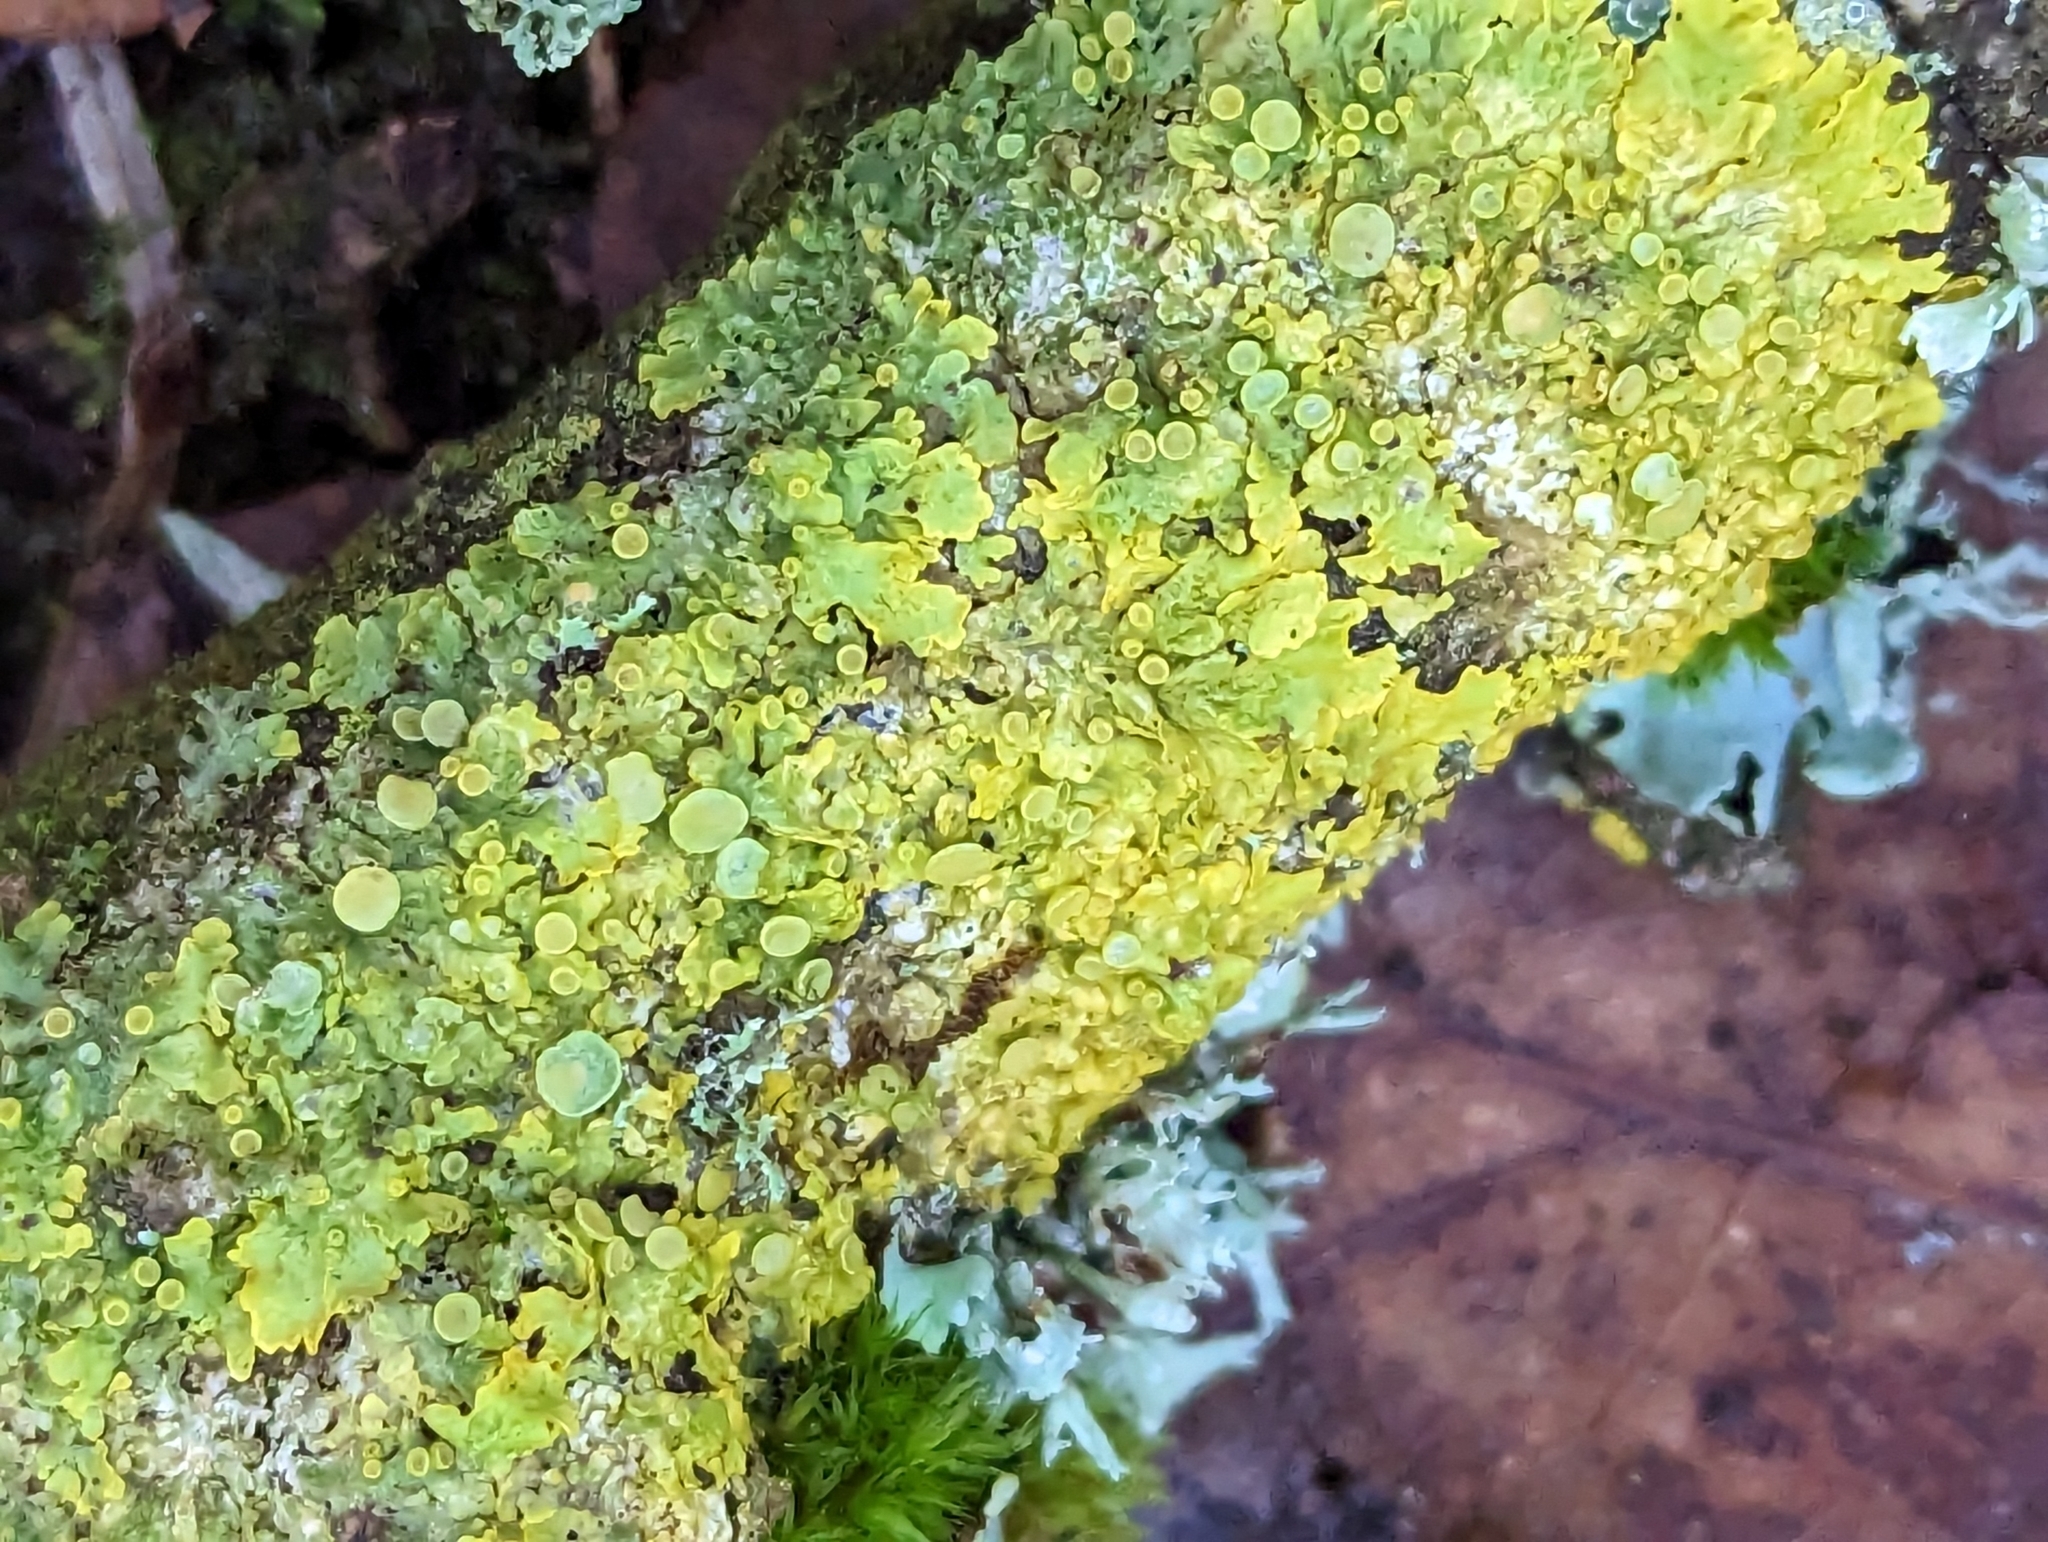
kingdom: Fungi
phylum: Ascomycota
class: Lecanoromycetes
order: Teloschistales
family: Teloschistaceae
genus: Xanthoria
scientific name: Xanthoria parietina
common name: Common orange lichen
